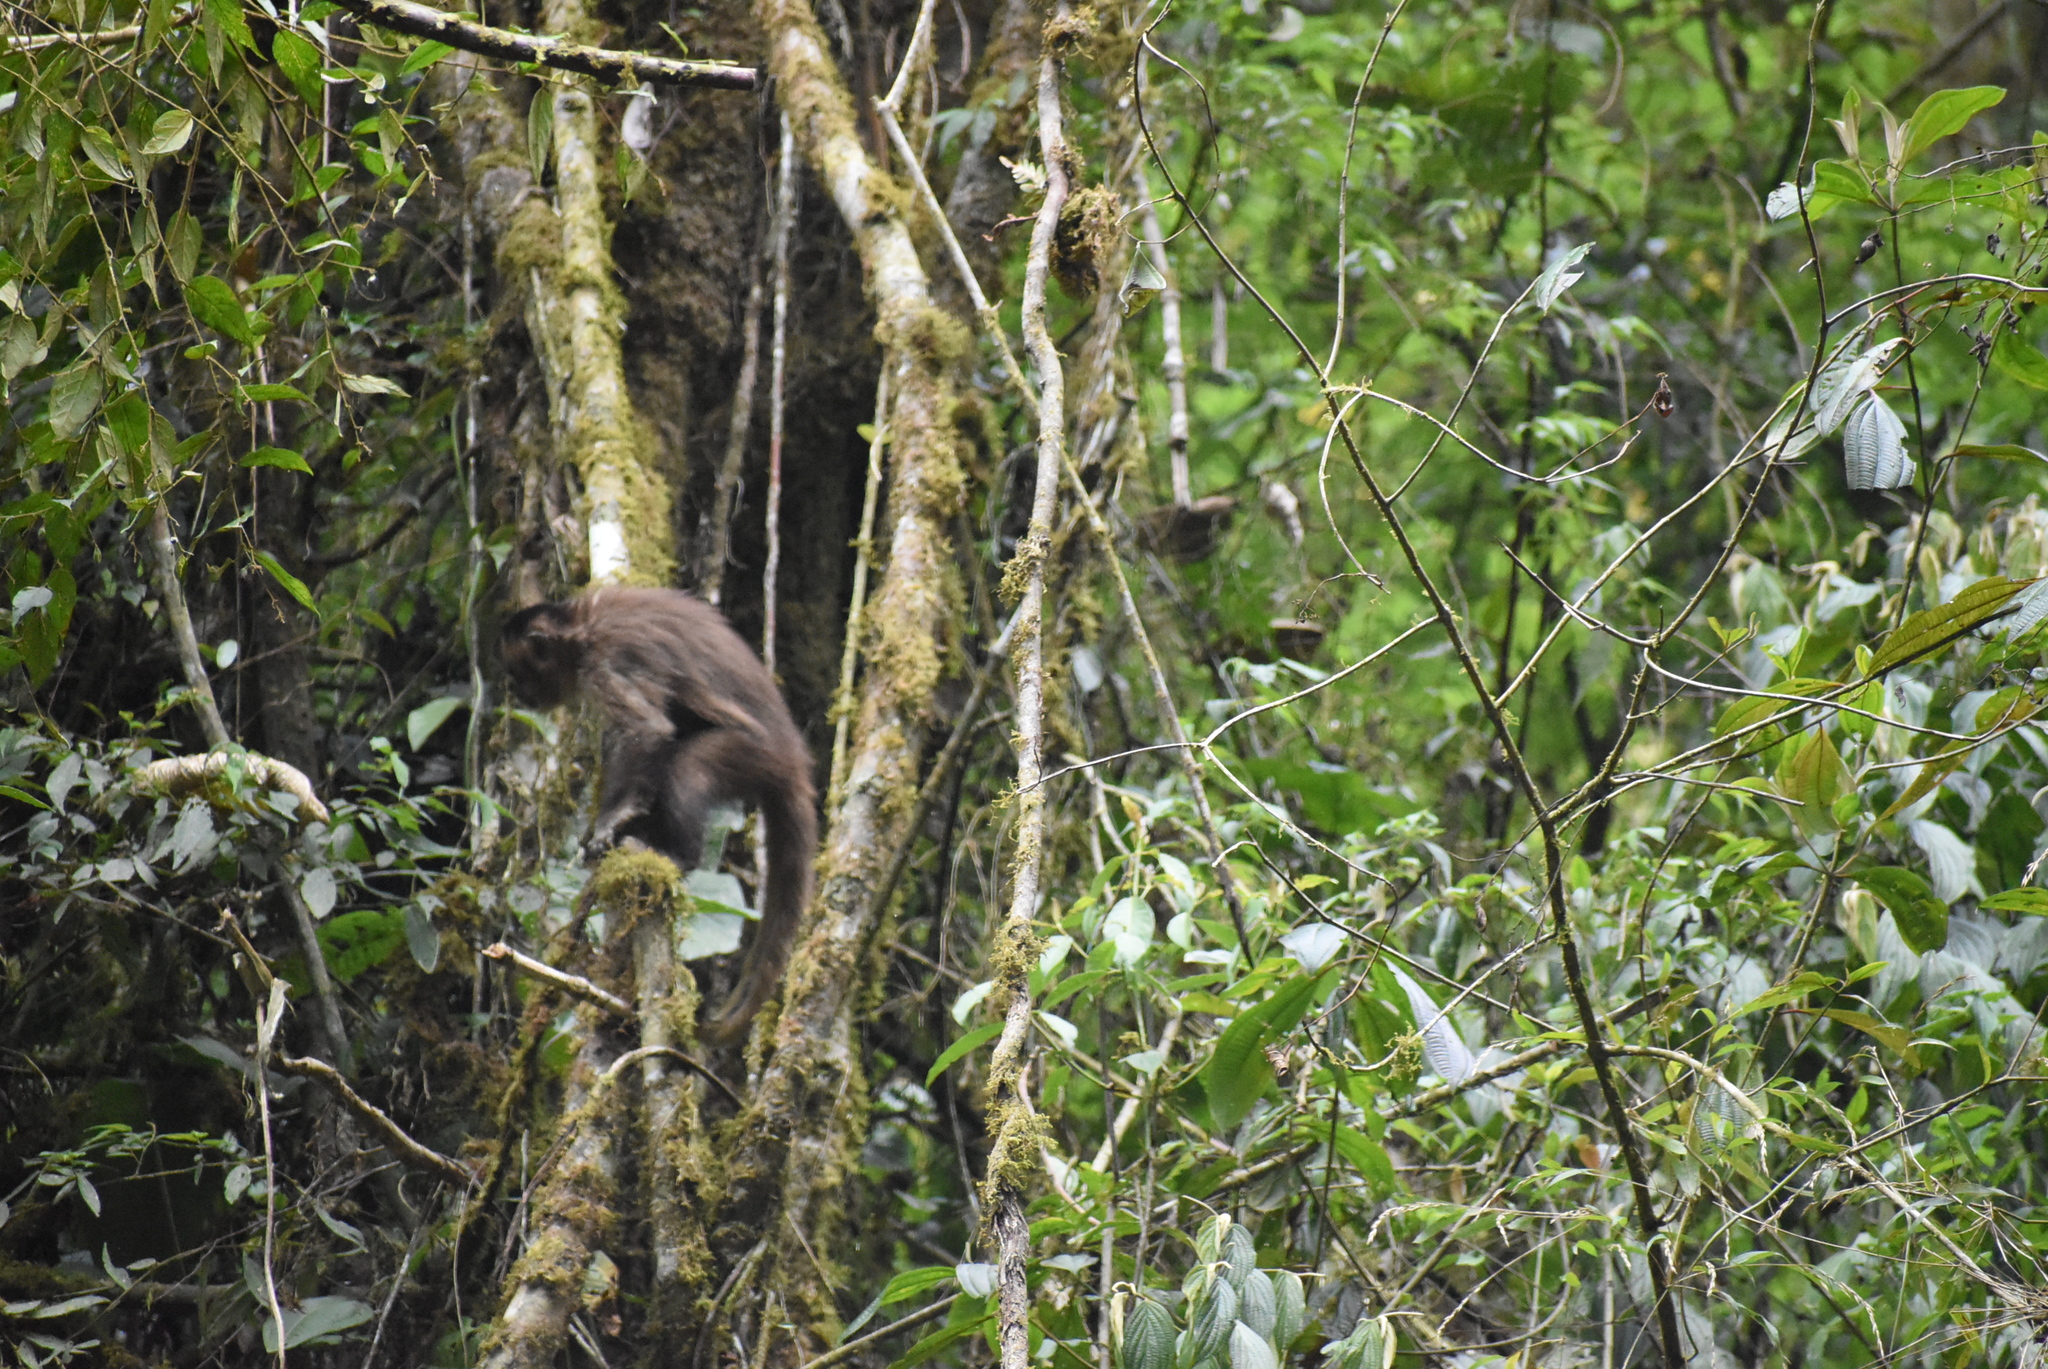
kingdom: Animalia
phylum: Chordata
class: Mammalia
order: Primates
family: Cebidae
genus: Sapajus
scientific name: Sapajus apella
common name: Tufted capuchin
